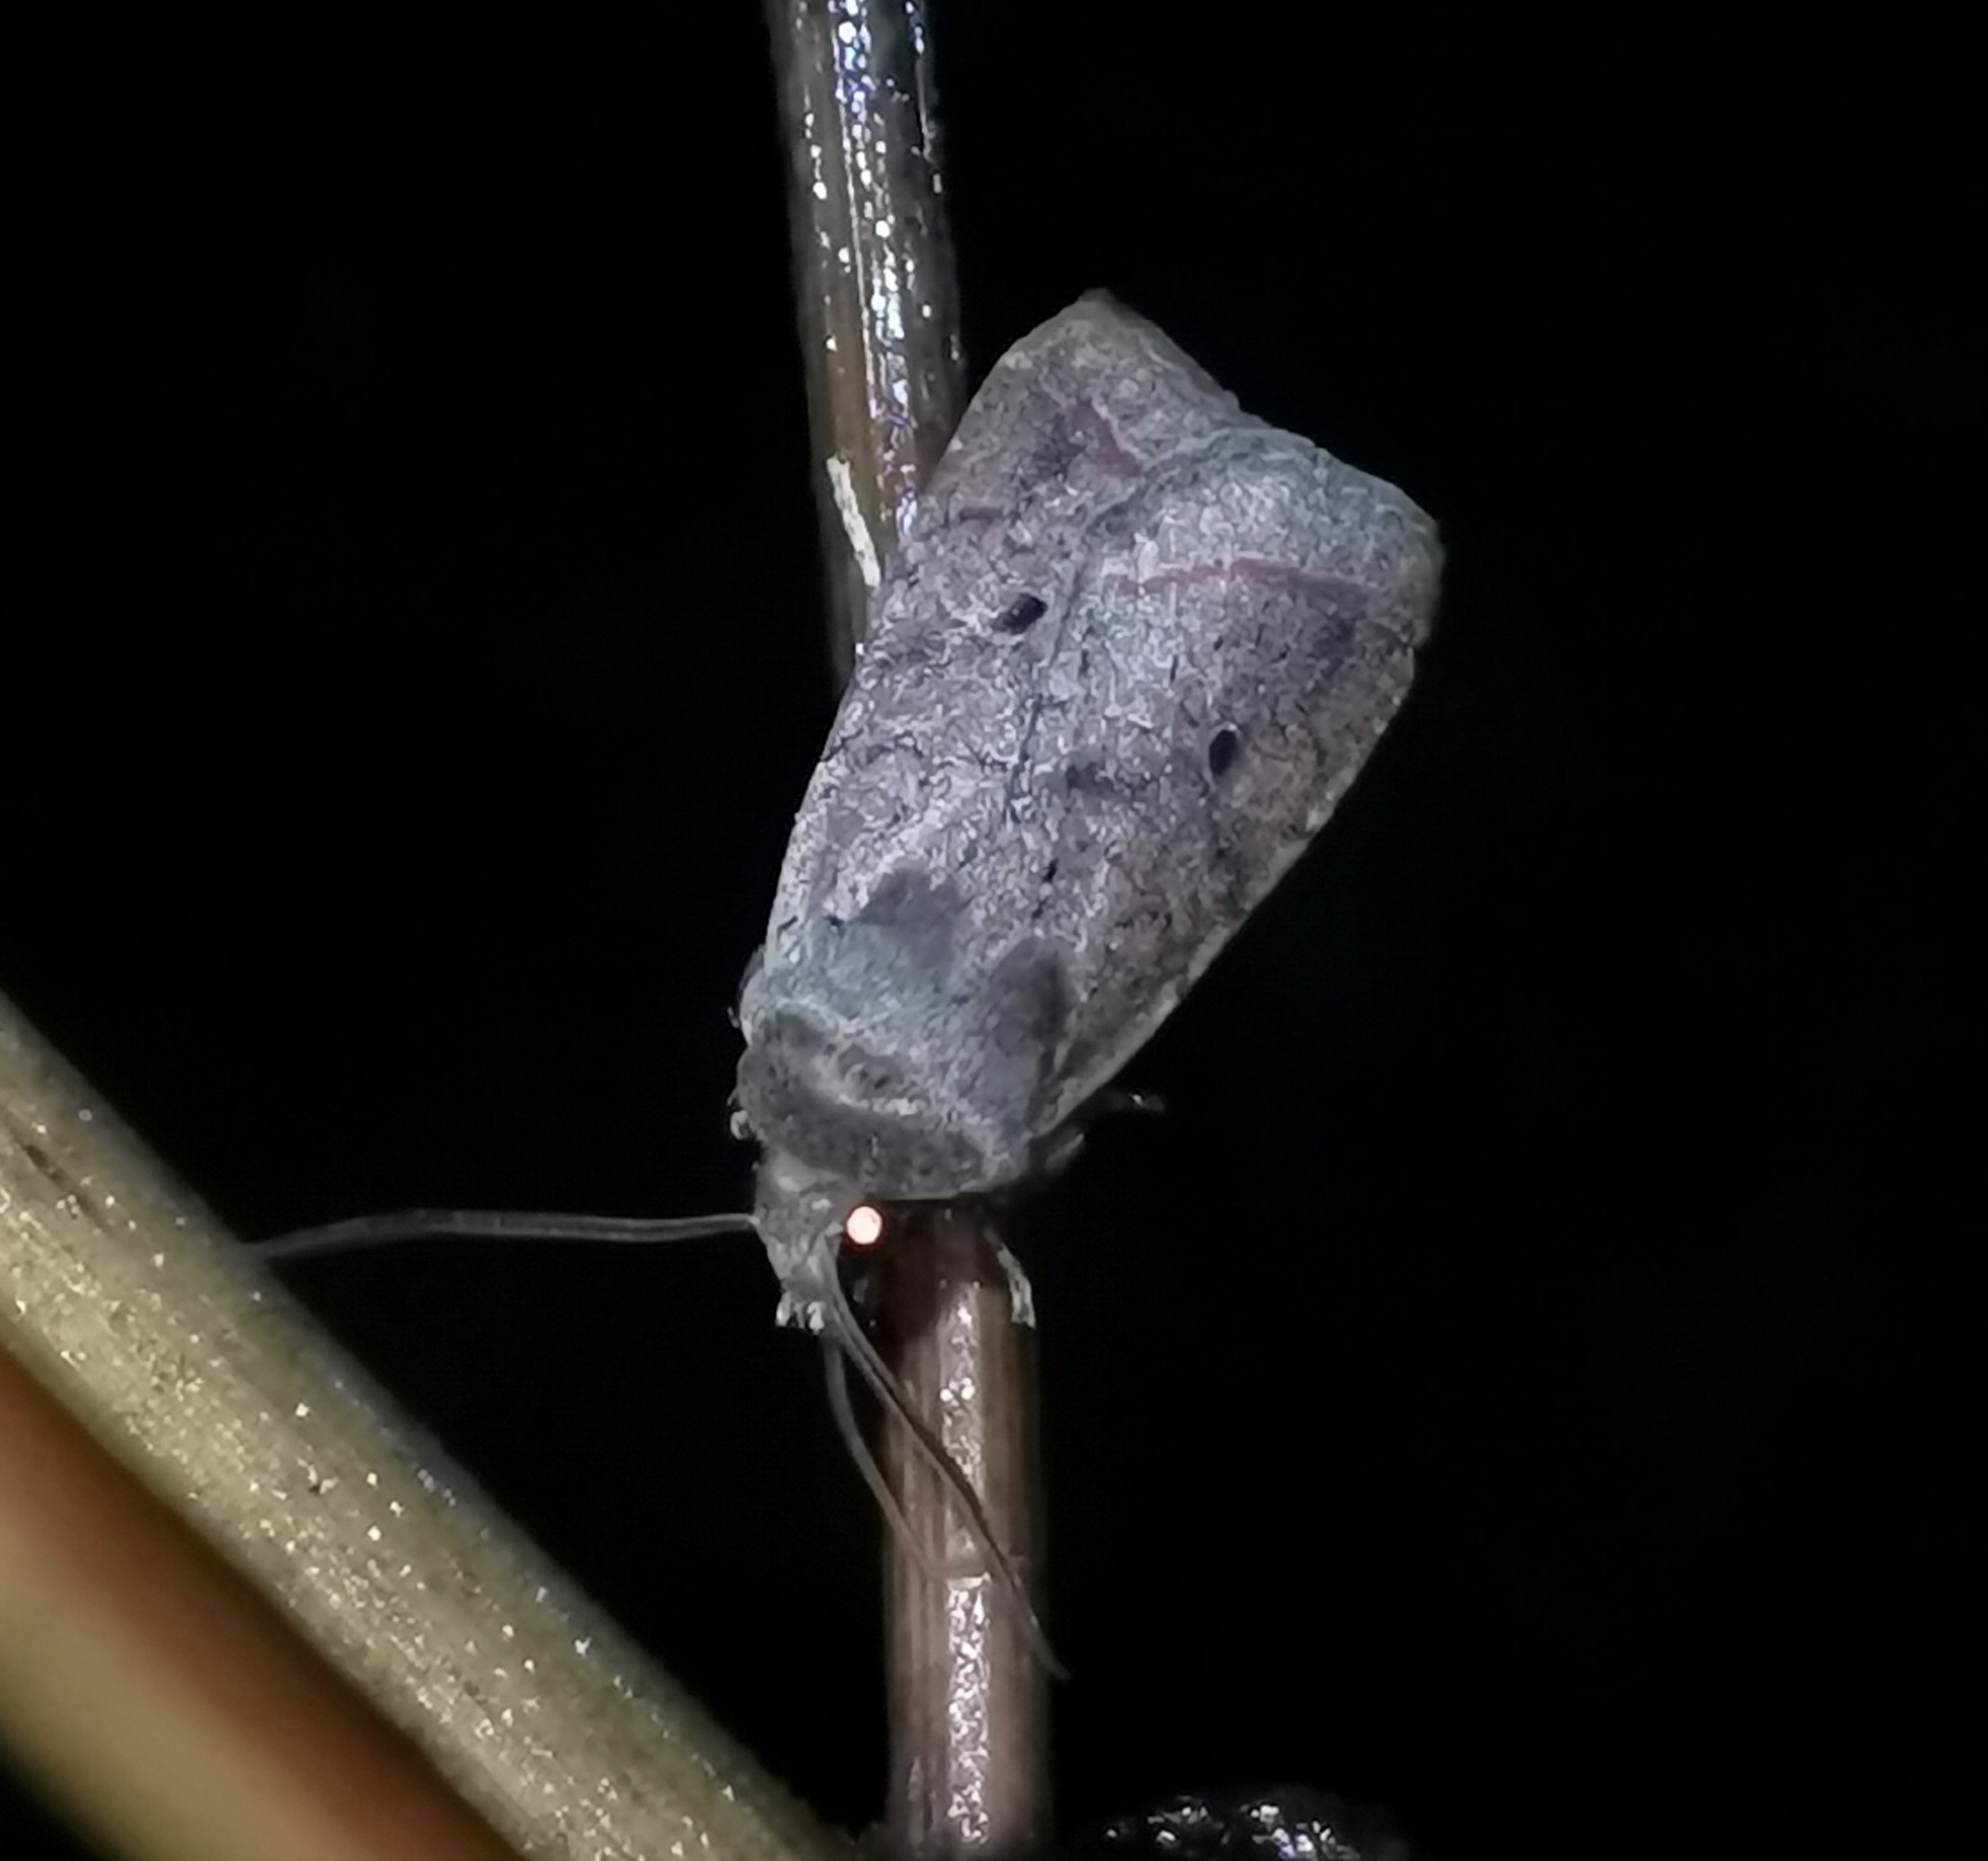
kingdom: Animalia
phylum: Arthropoda
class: Insecta
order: Lepidoptera
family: Noctuidae
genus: Agrochola
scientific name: Agrochola lota
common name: Red-line quaker
